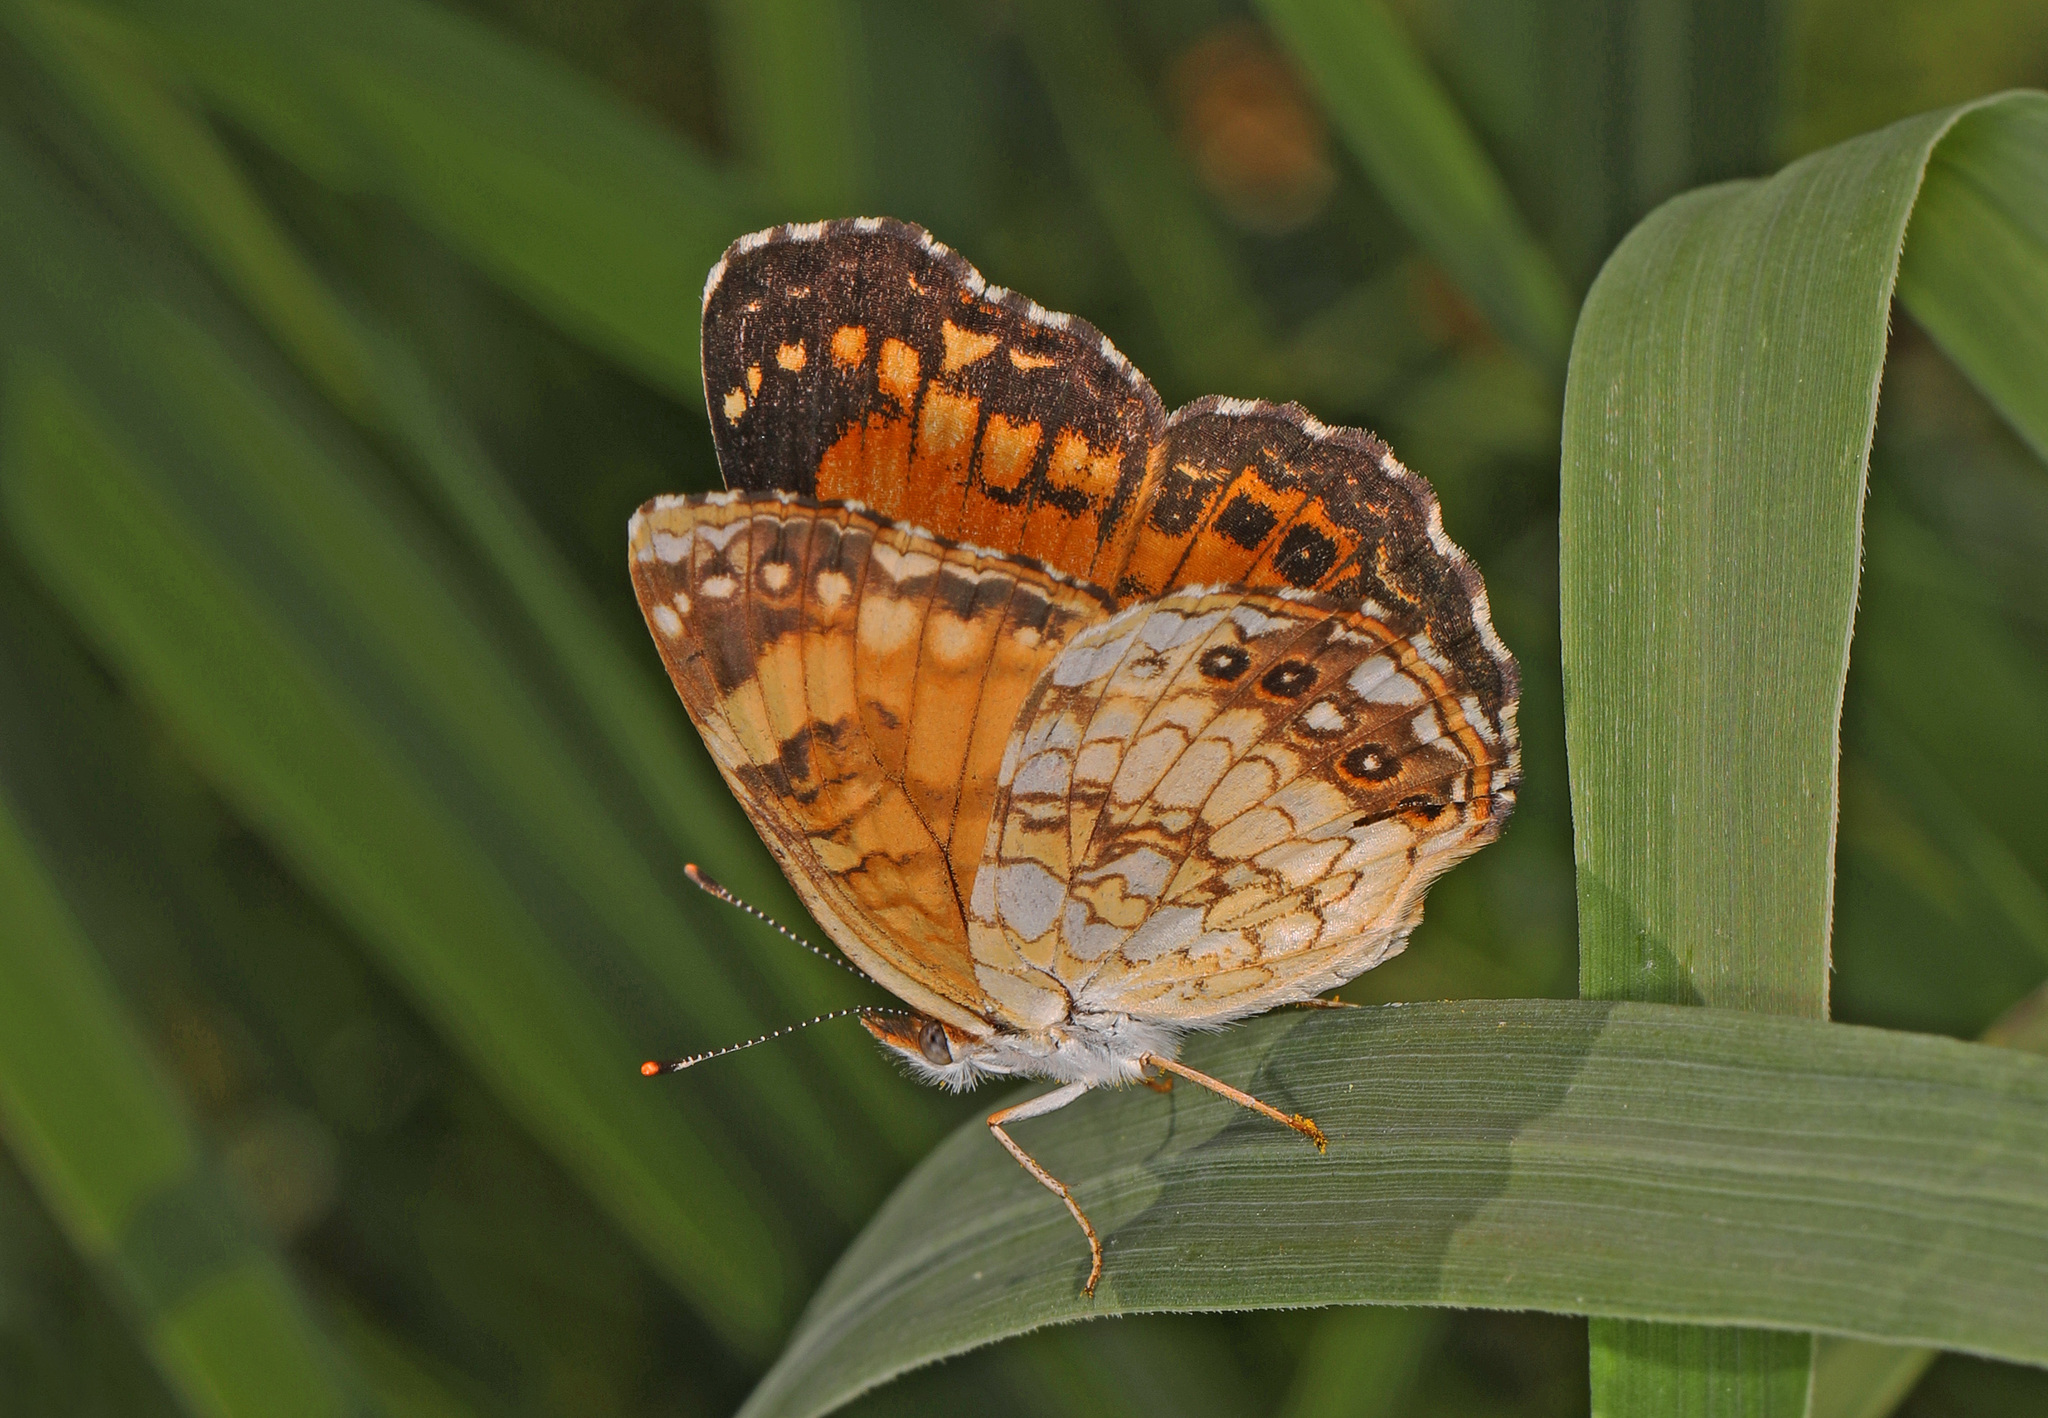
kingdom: Animalia
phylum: Arthropoda
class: Insecta
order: Lepidoptera
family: Nymphalidae
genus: Chlosyne
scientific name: Chlosyne nycteis
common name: Silvery checkerspot
